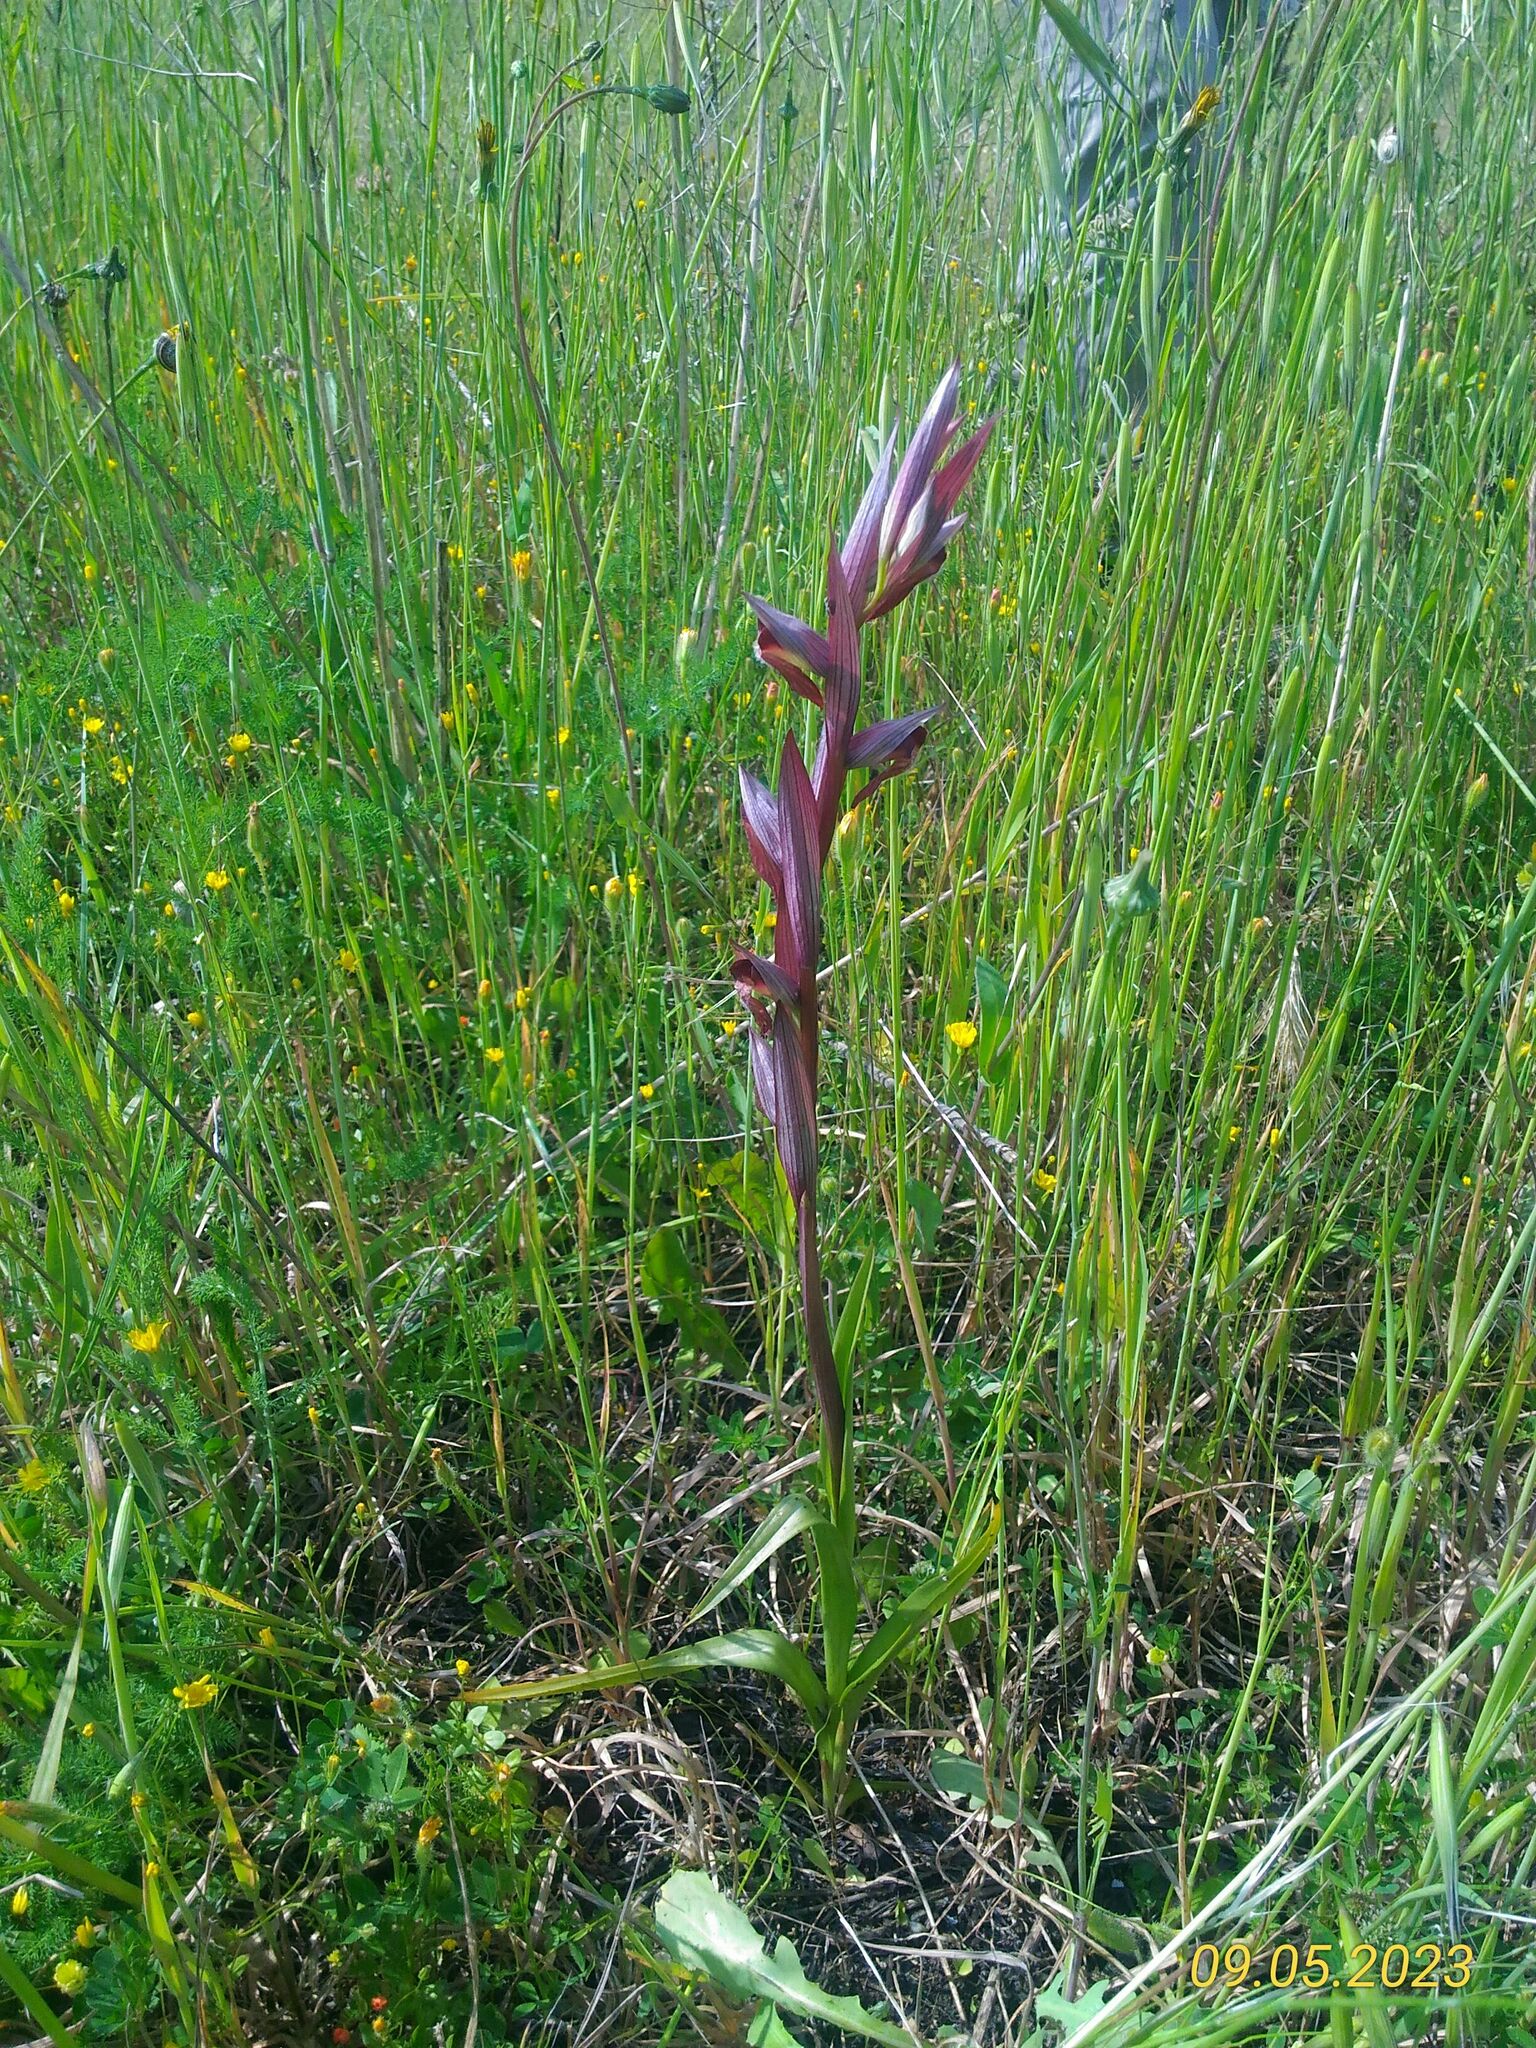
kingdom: Plantae
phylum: Tracheophyta
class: Liliopsida
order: Asparagales
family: Orchidaceae
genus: Serapias
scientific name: Serapias vomeracea
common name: Long-lipped tongue-orchid
